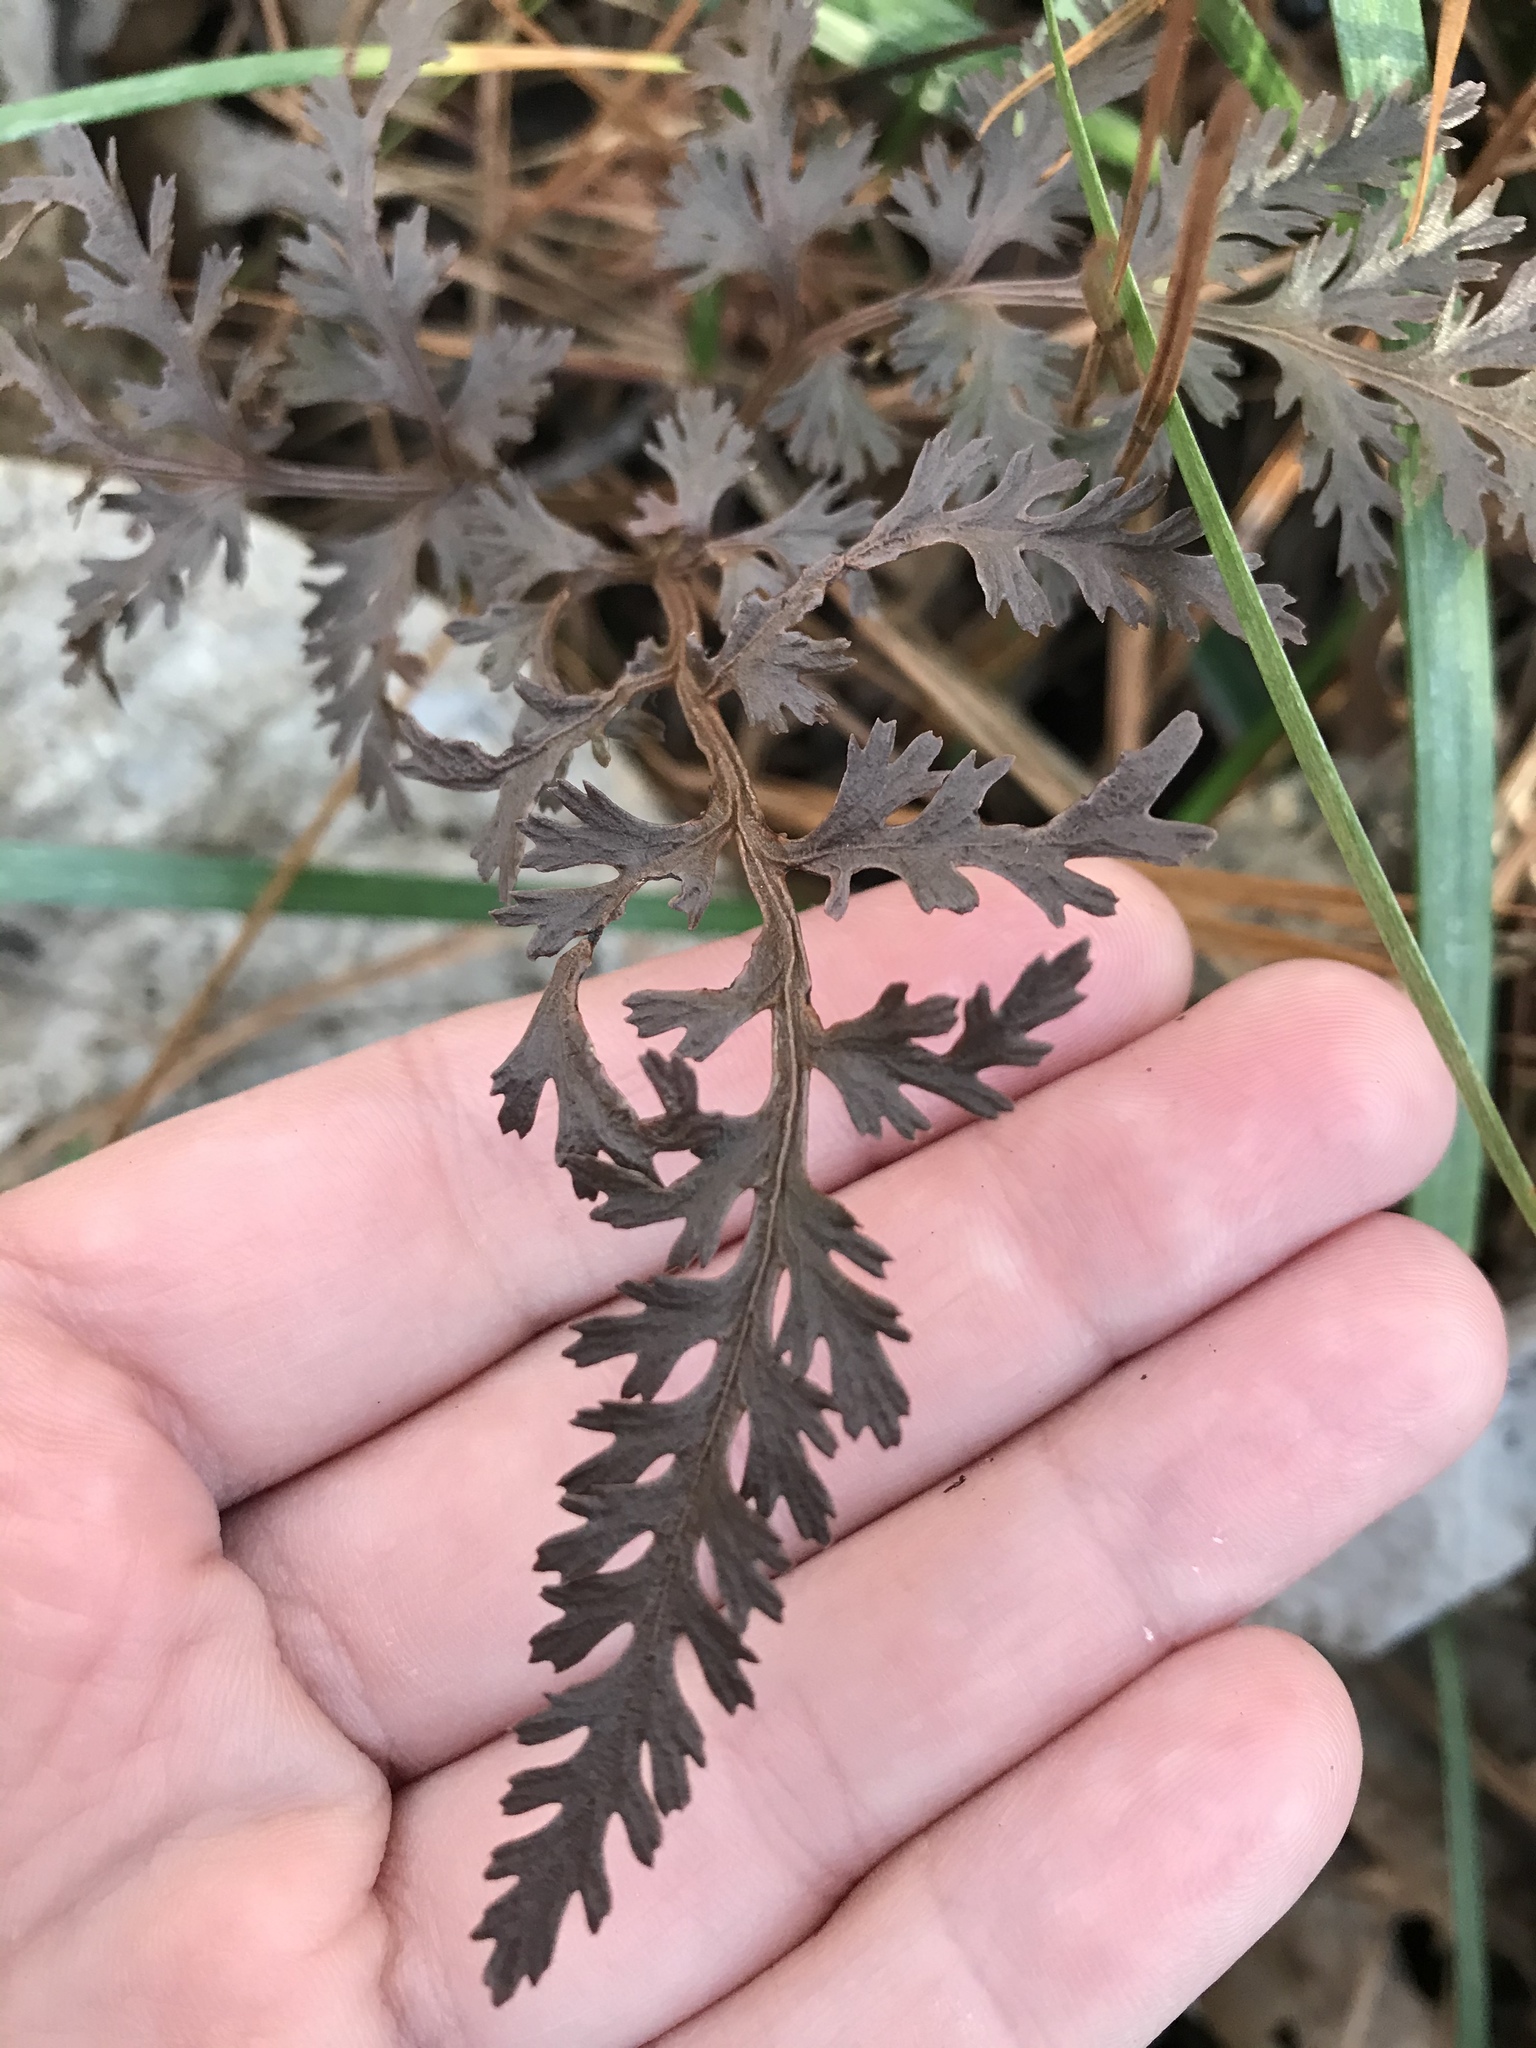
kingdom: Plantae
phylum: Tracheophyta
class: Polypodiopsida
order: Ophioglossales
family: Ophioglossaceae
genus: Sceptridium
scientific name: Sceptridium dissectum
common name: Cut-leaved grapefern
